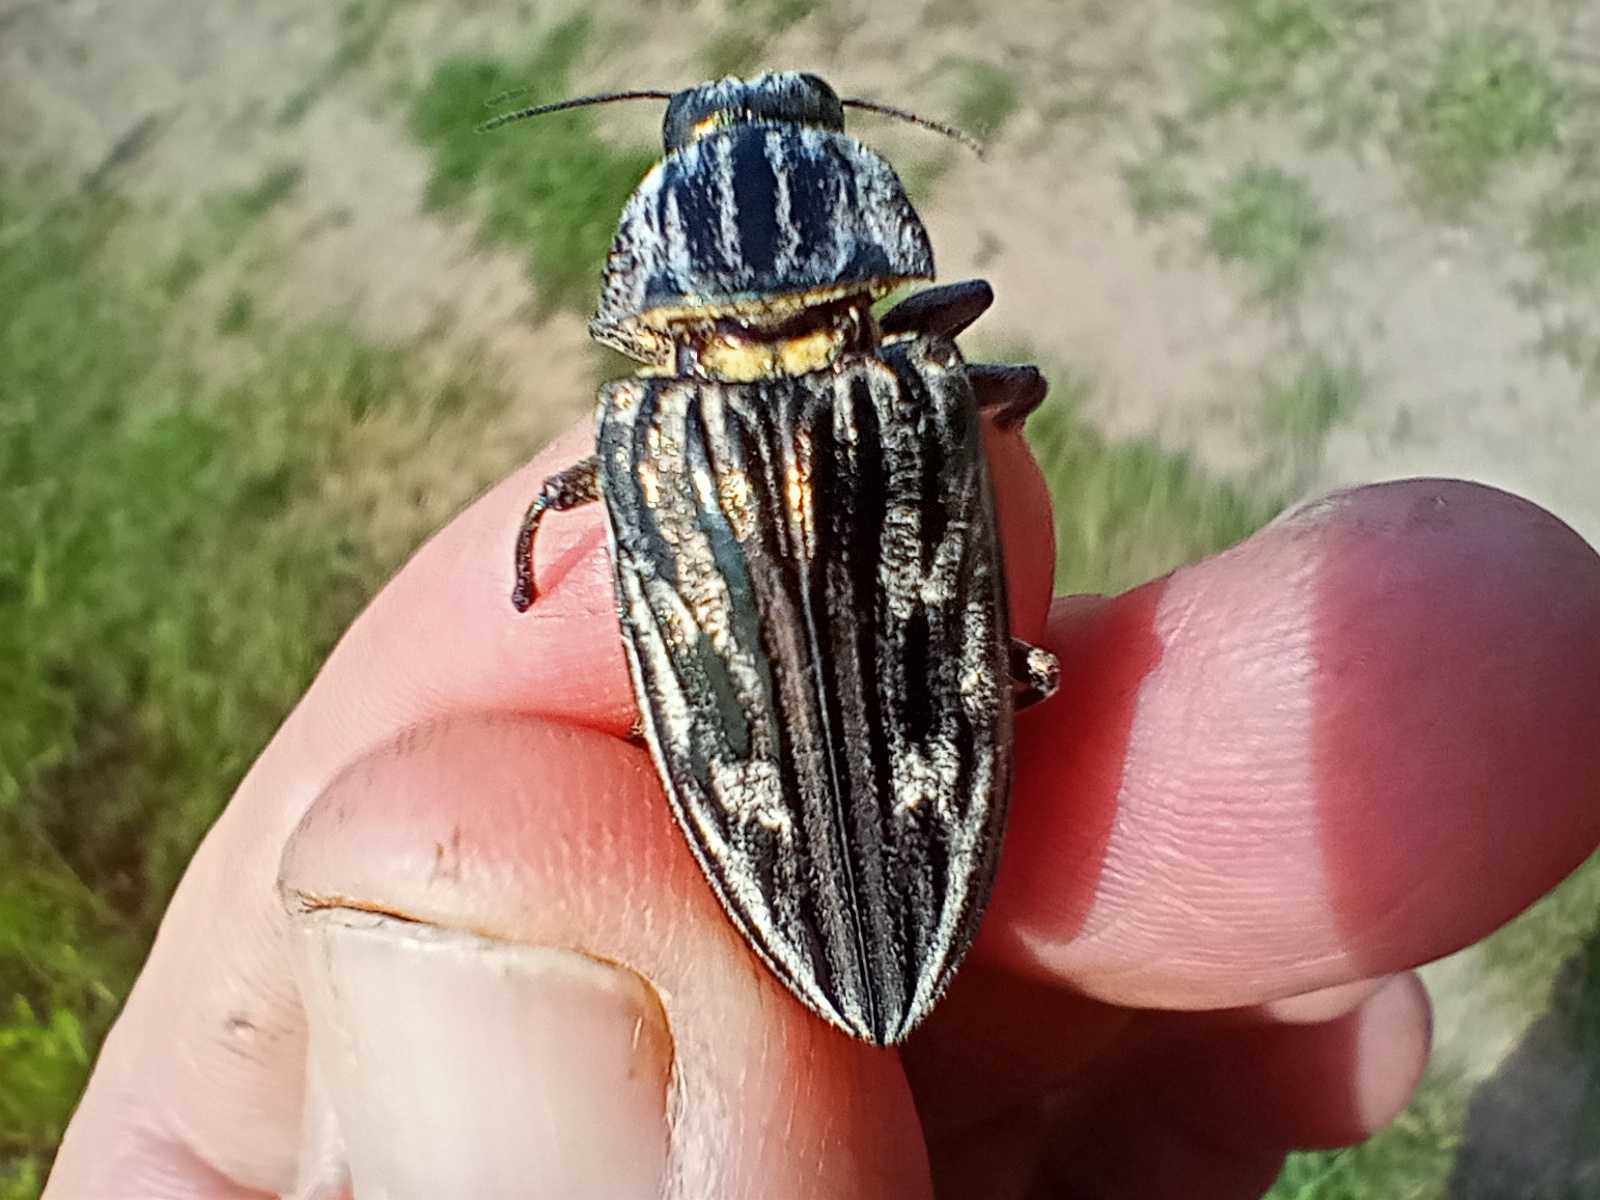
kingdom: Animalia
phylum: Arthropoda
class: Insecta
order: Coleoptera
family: Buprestidae
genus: Chalcophora
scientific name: Chalcophora mariana
